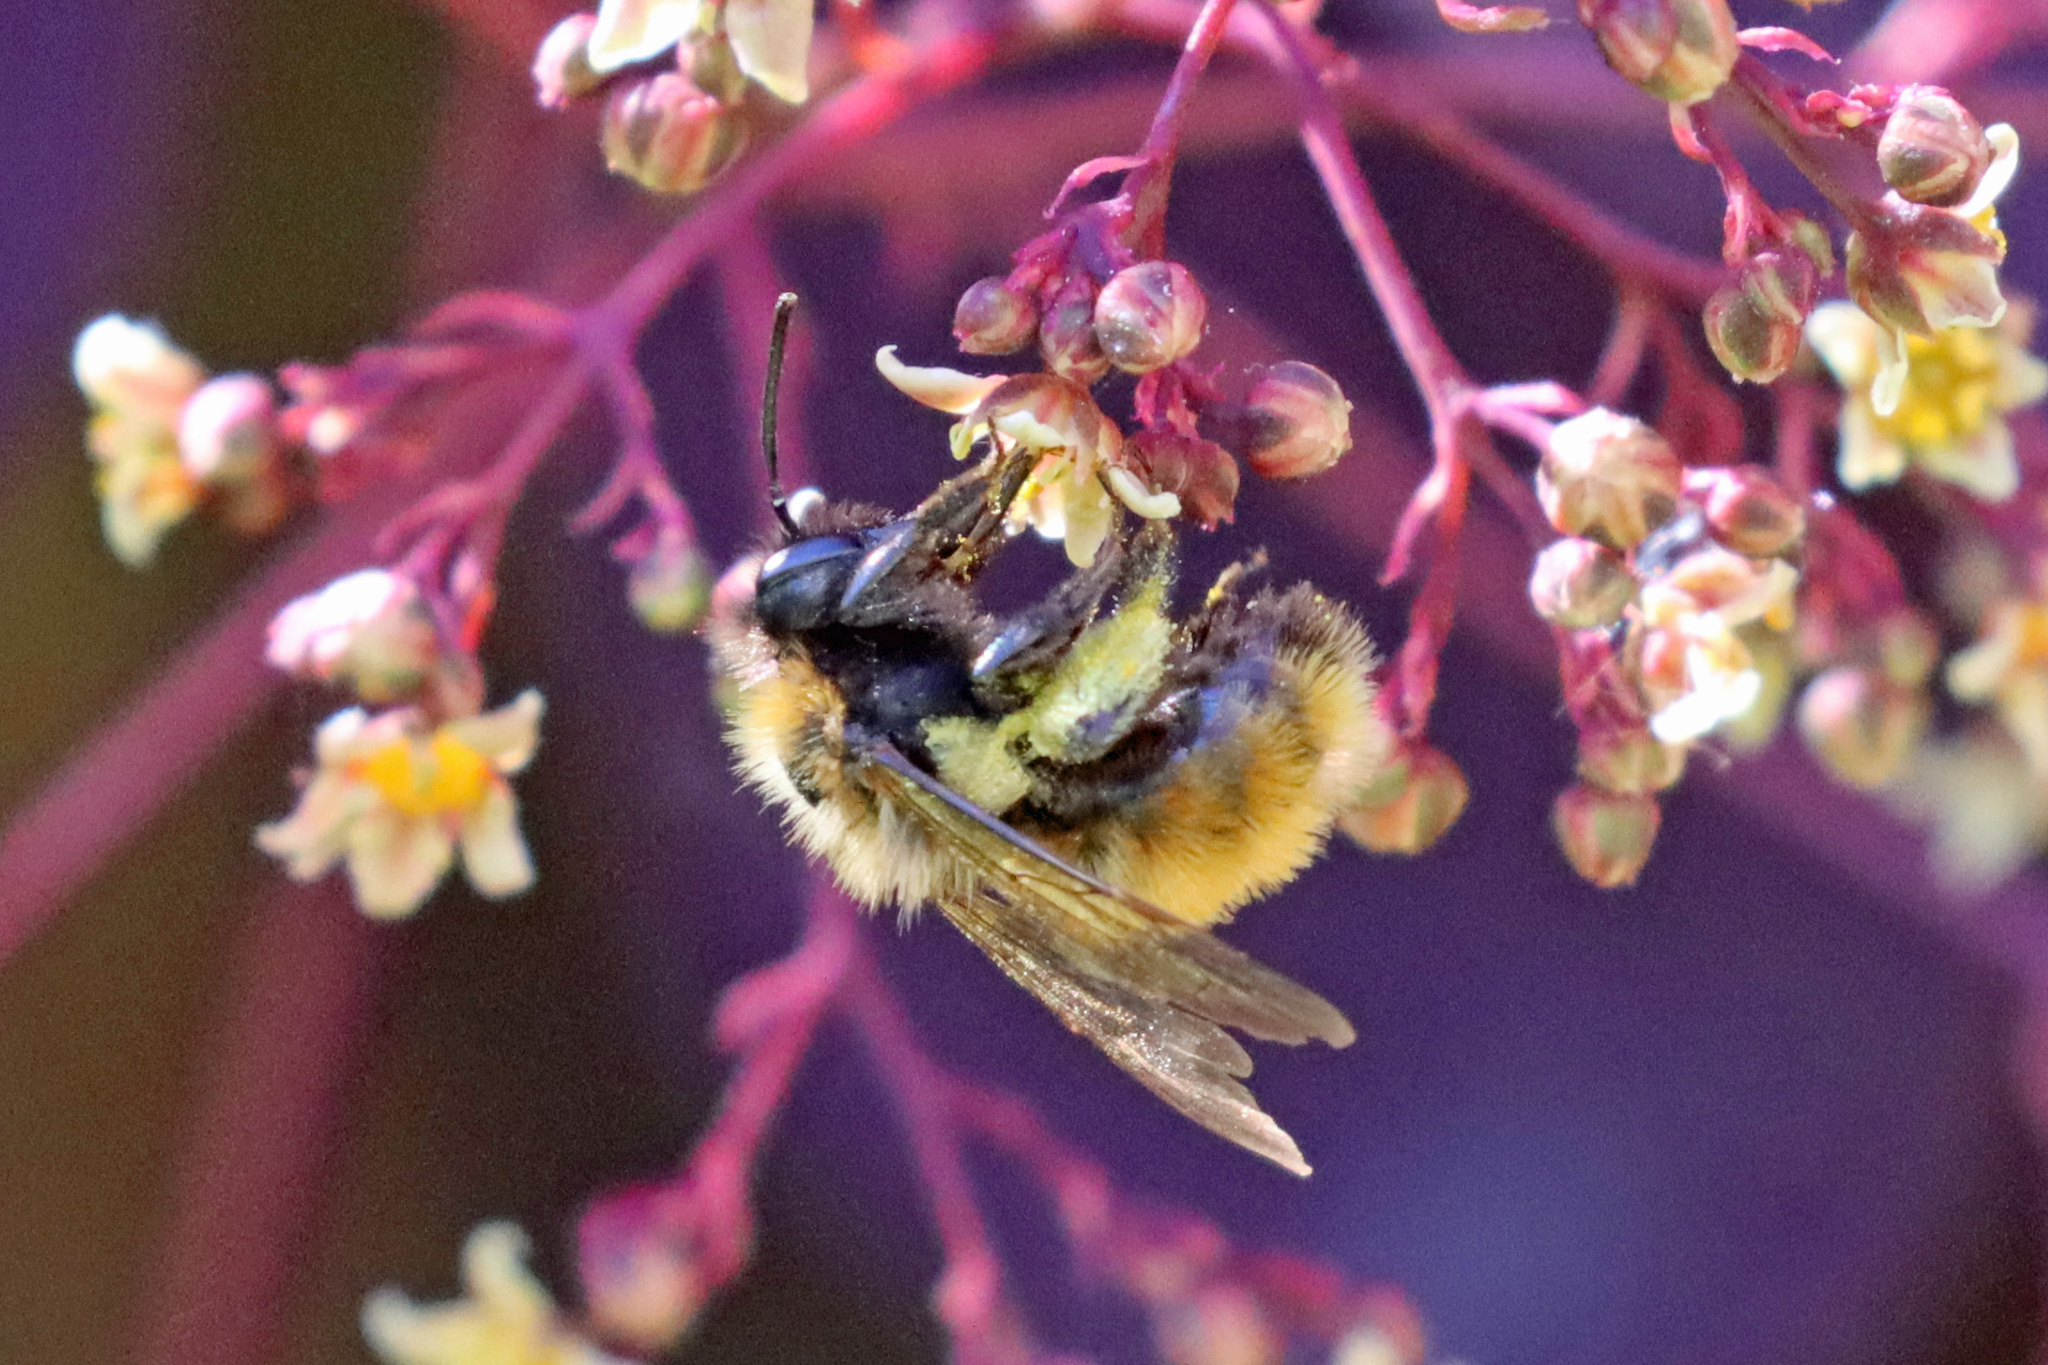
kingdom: Animalia
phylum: Arthropoda
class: Insecta
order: Hymenoptera
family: Andrenidae
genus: Andrena
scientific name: Andrena fulva
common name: Tawny mining bee
